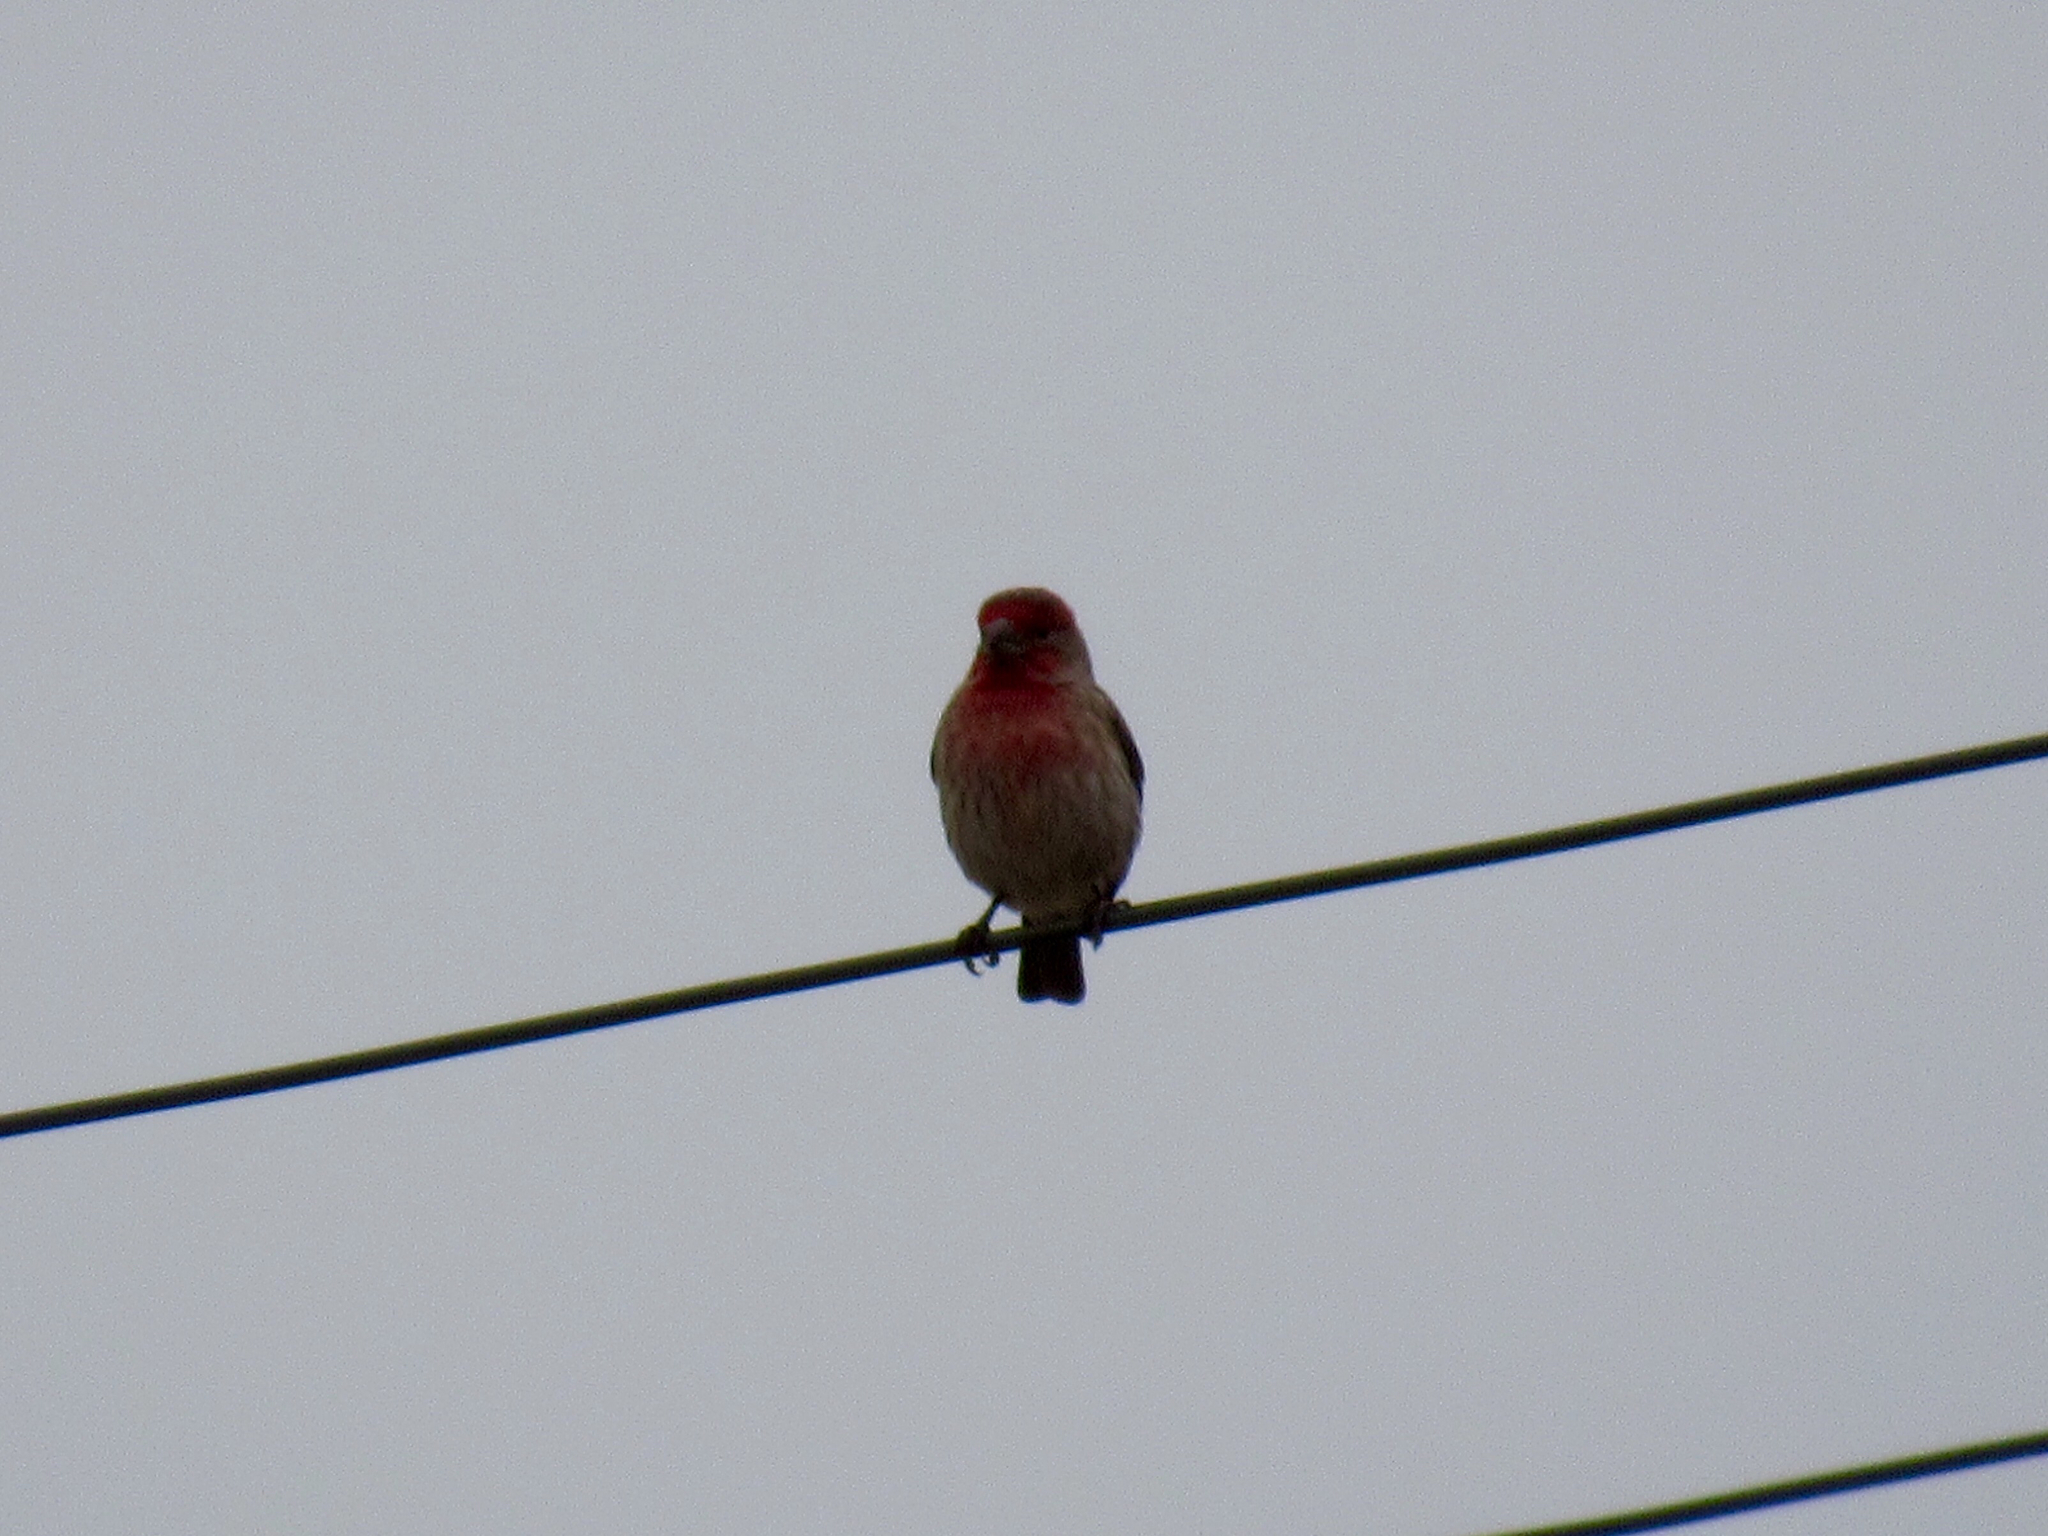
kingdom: Animalia
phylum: Chordata
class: Aves
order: Passeriformes
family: Fringillidae
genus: Haemorhous
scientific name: Haemorhous mexicanus
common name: House finch
